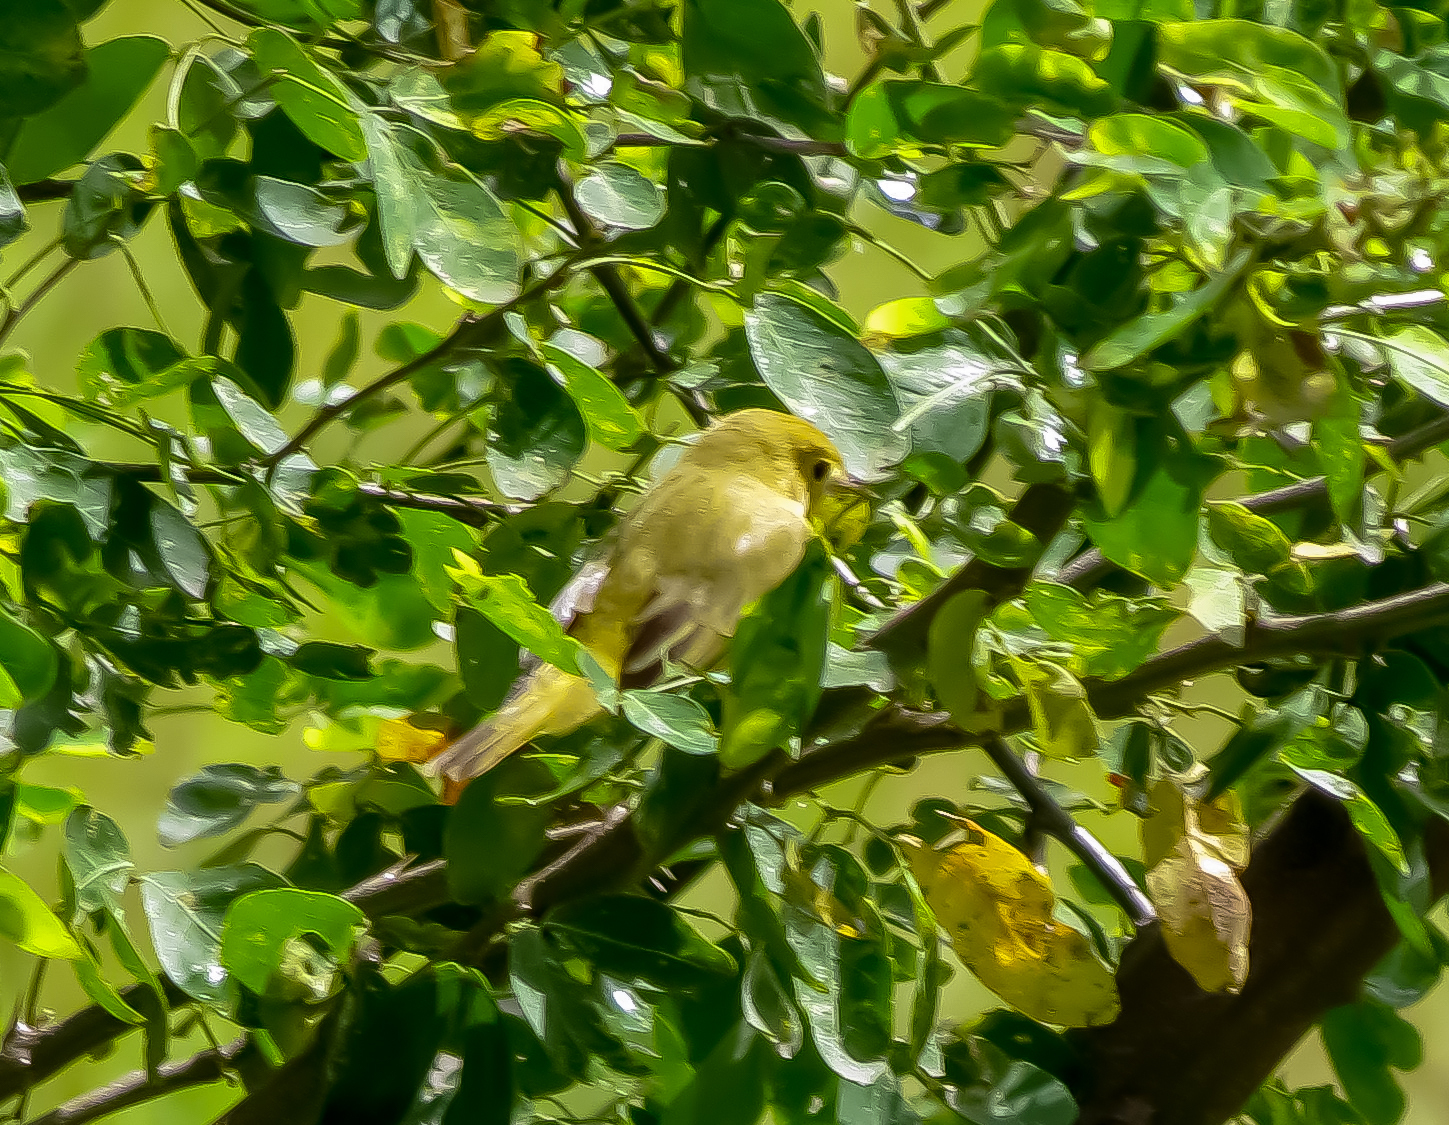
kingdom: Animalia
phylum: Chordata
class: Aves
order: Passeriformes
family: Parulidae
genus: Setophaga
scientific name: Setophaga petechia
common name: Yellow warbler
